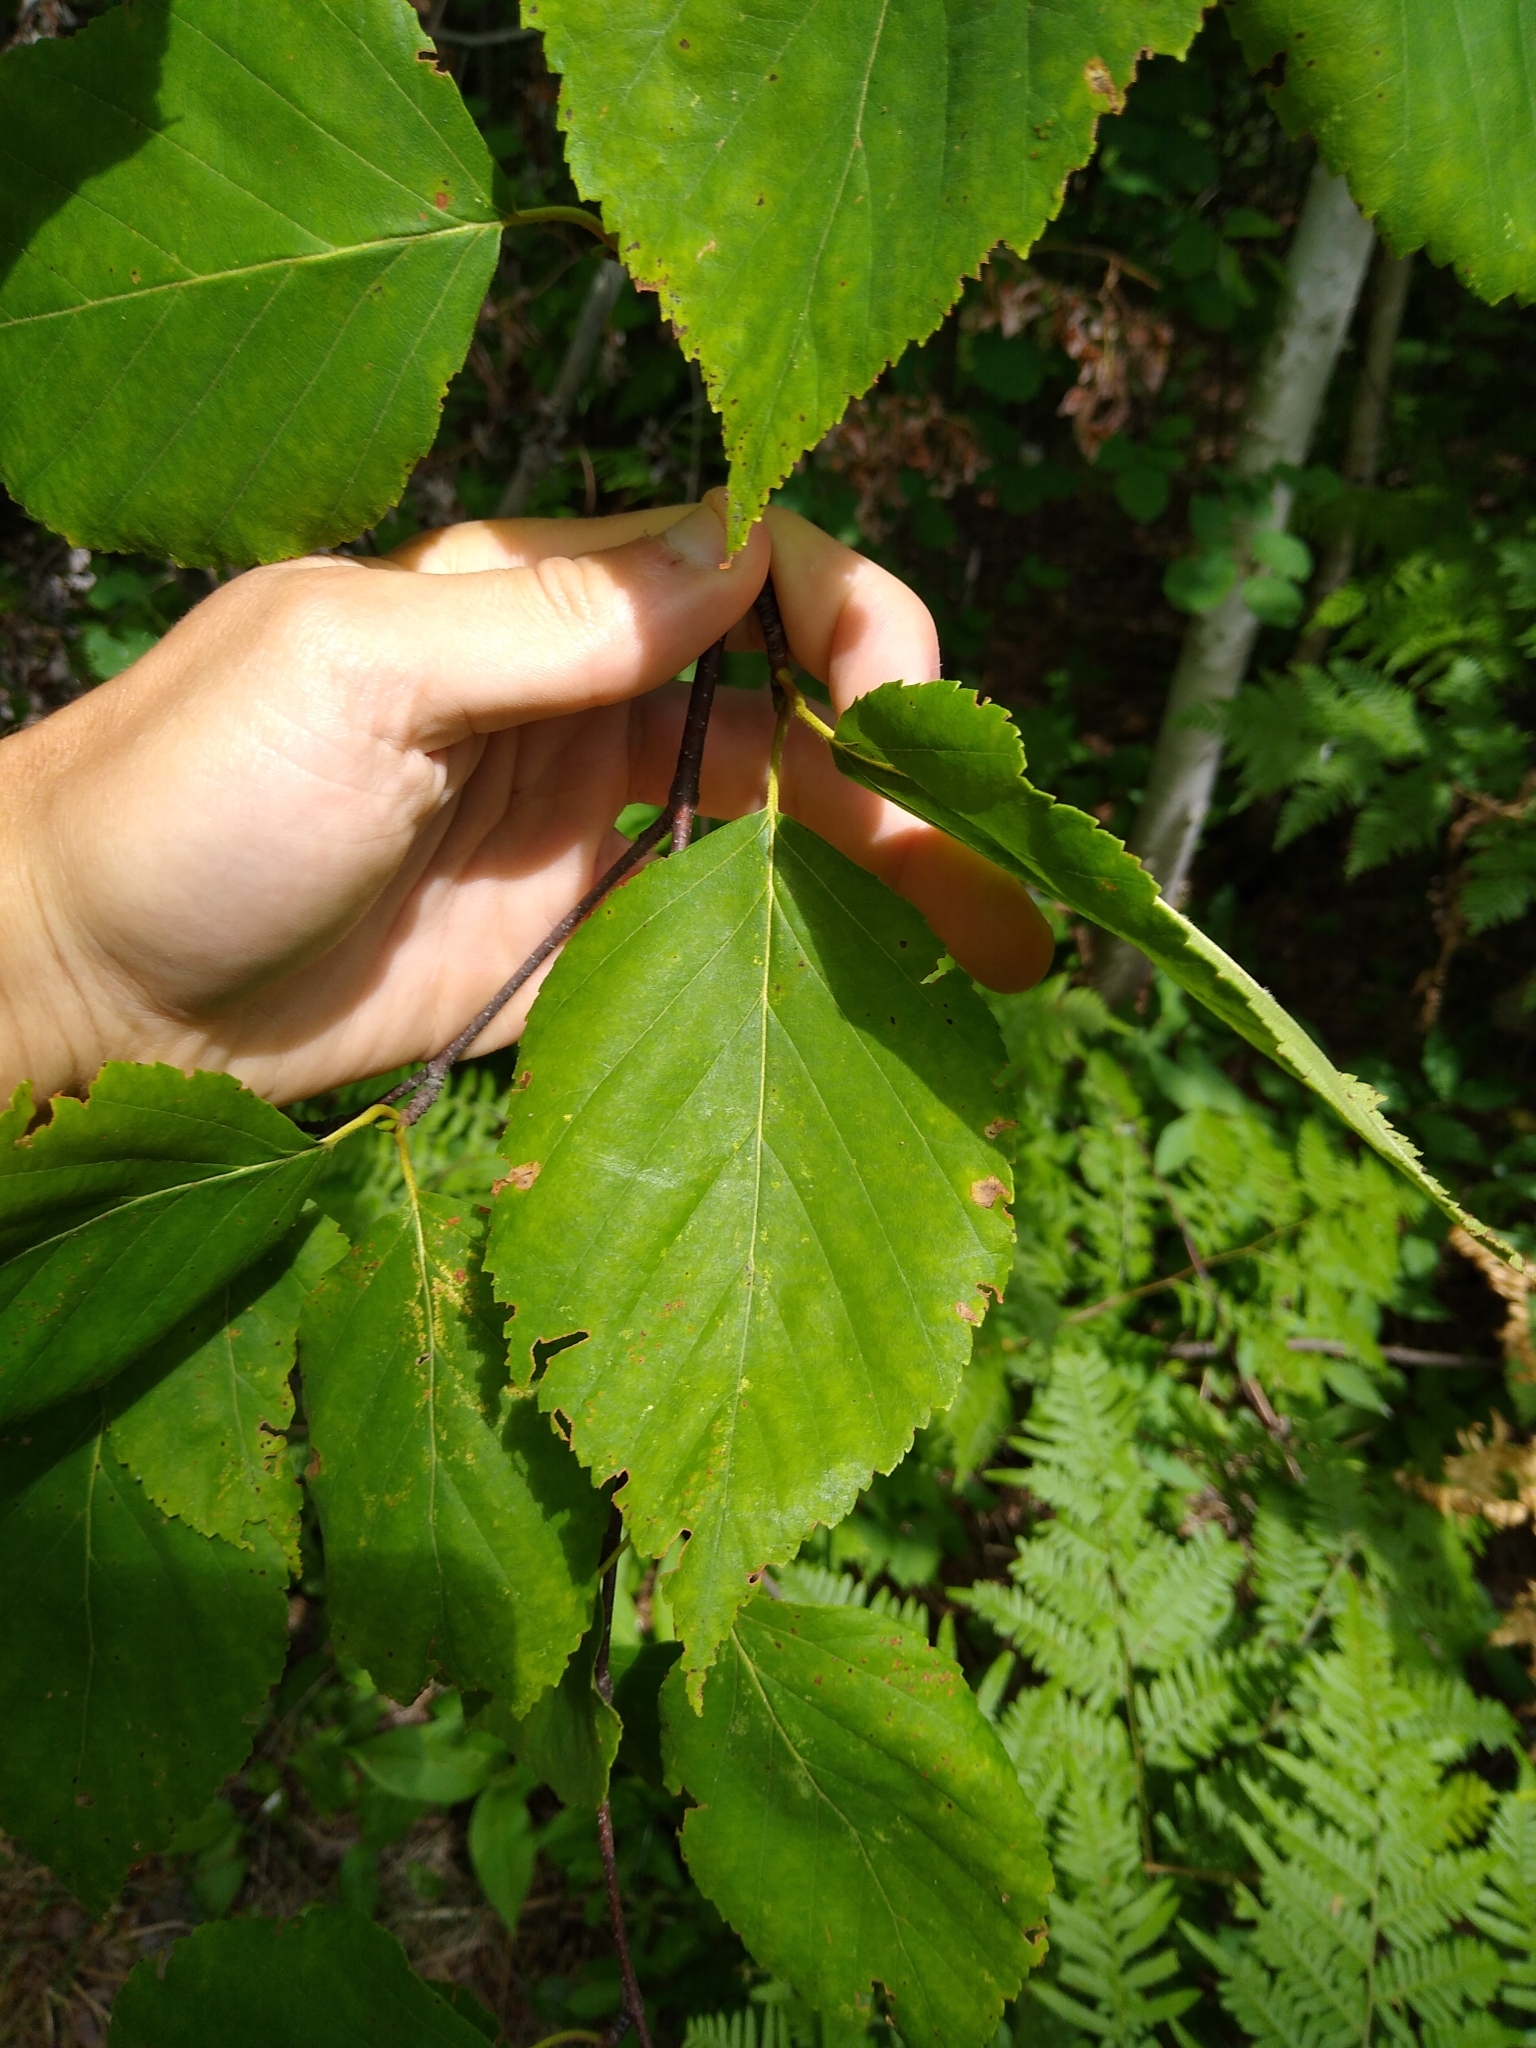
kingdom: Plantae
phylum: Tracheophyta
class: Magnoliopsida
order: Fagales
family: Betulaceae
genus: Betula
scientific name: Betula papyrifera
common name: Paper birch
